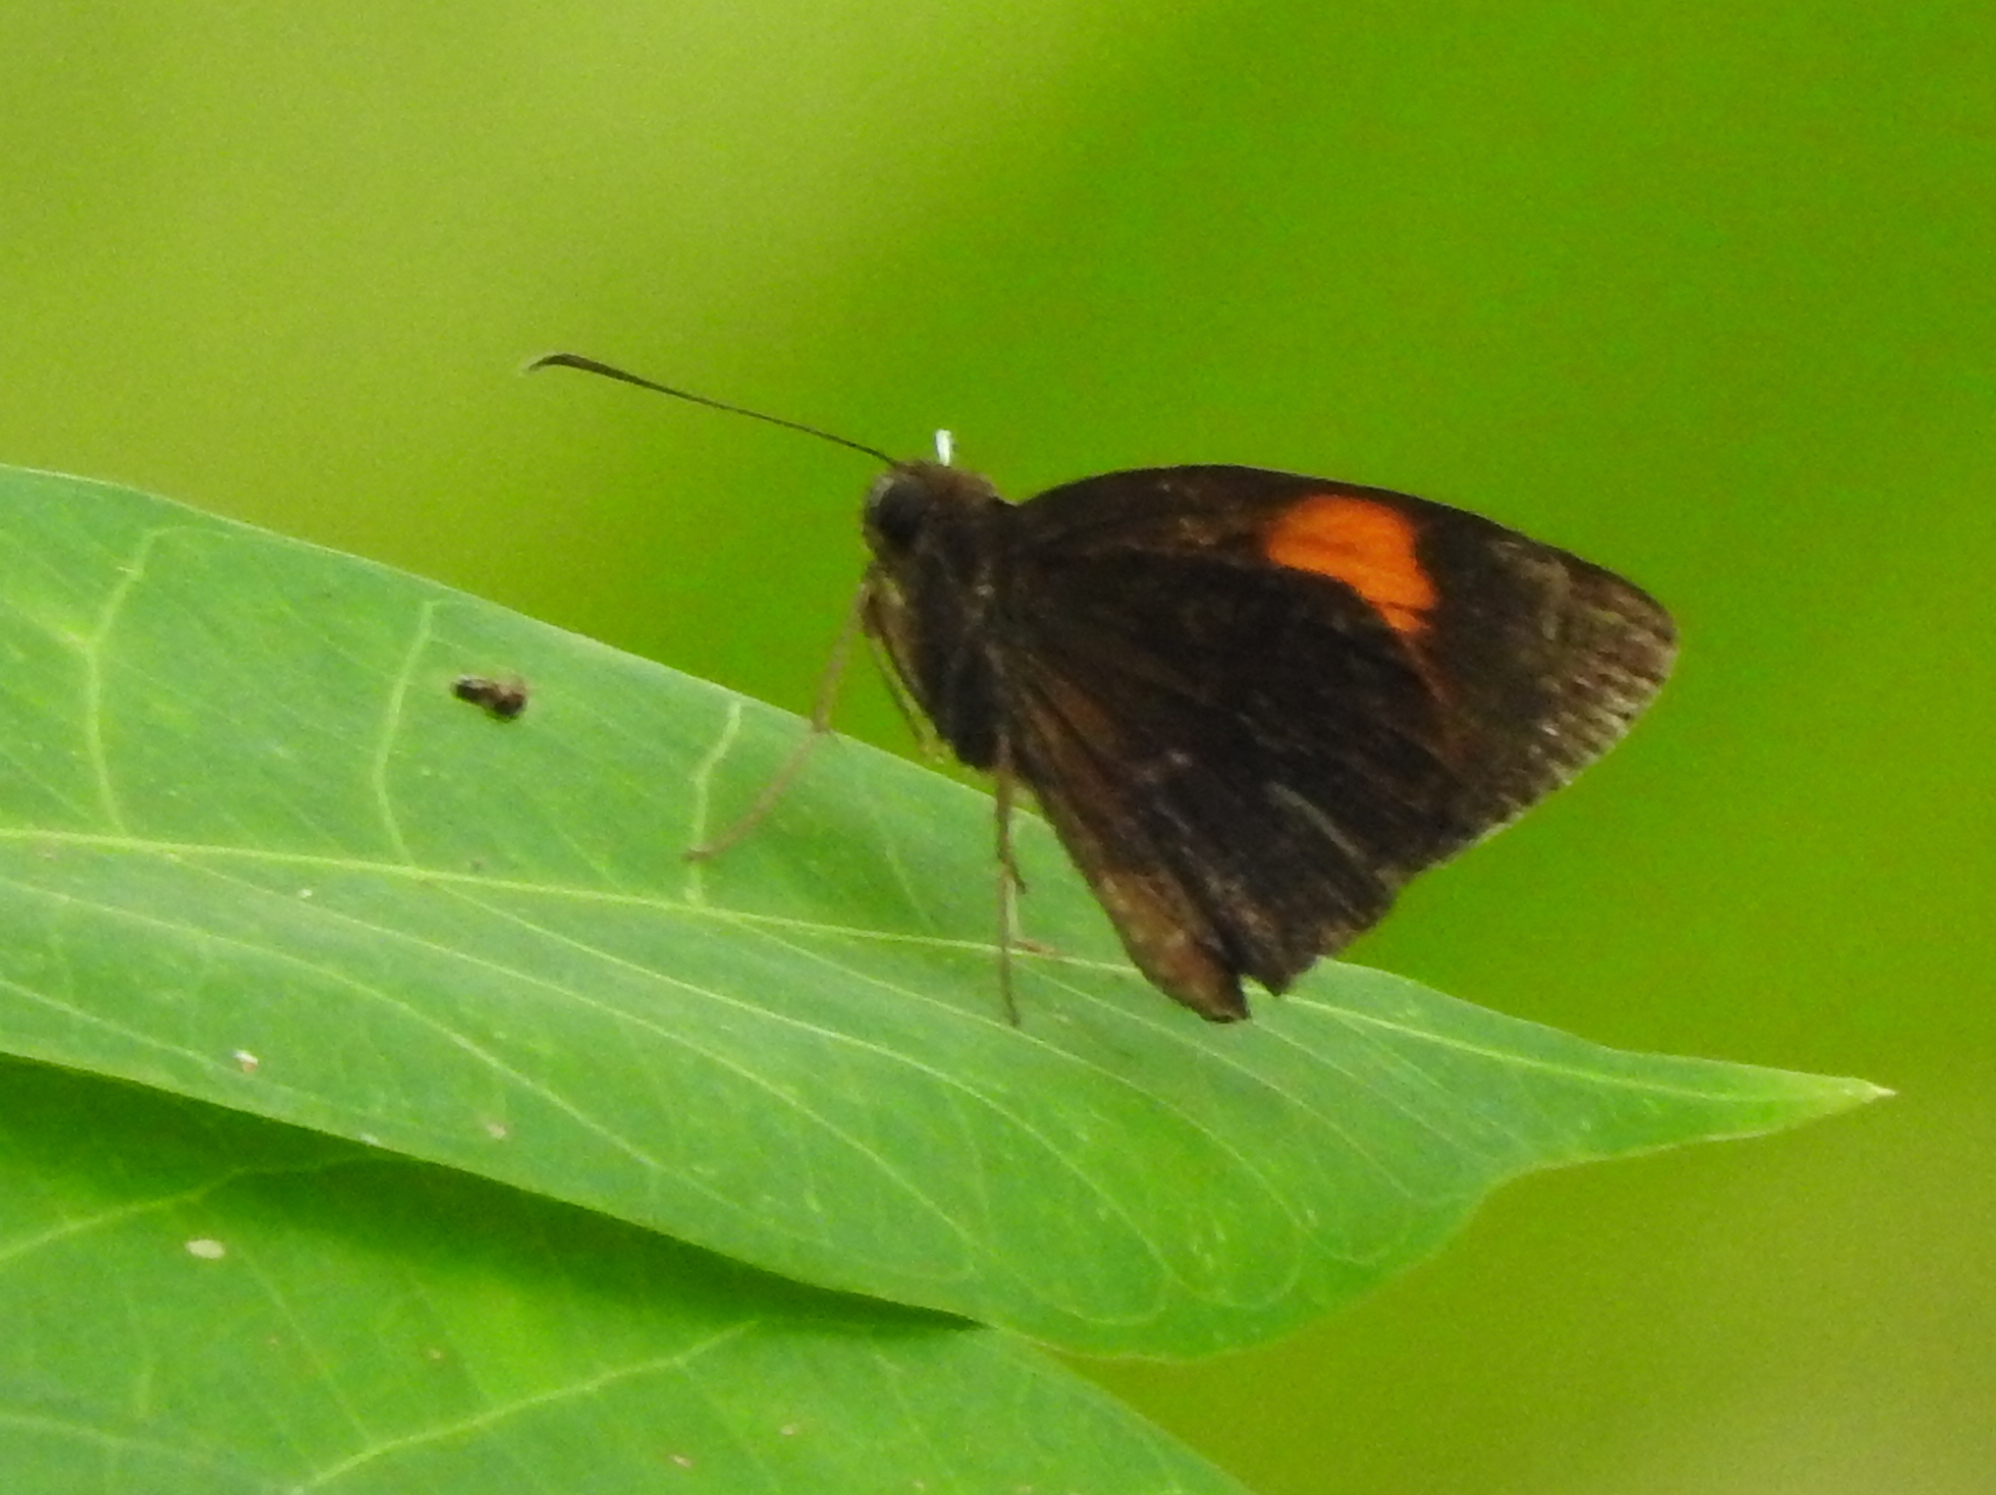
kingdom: Animalia
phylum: Arthropoda
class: Insecta
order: Lepidoptera
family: Hesperiidae
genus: Koruthaialos
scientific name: Koruthaialos sindu
